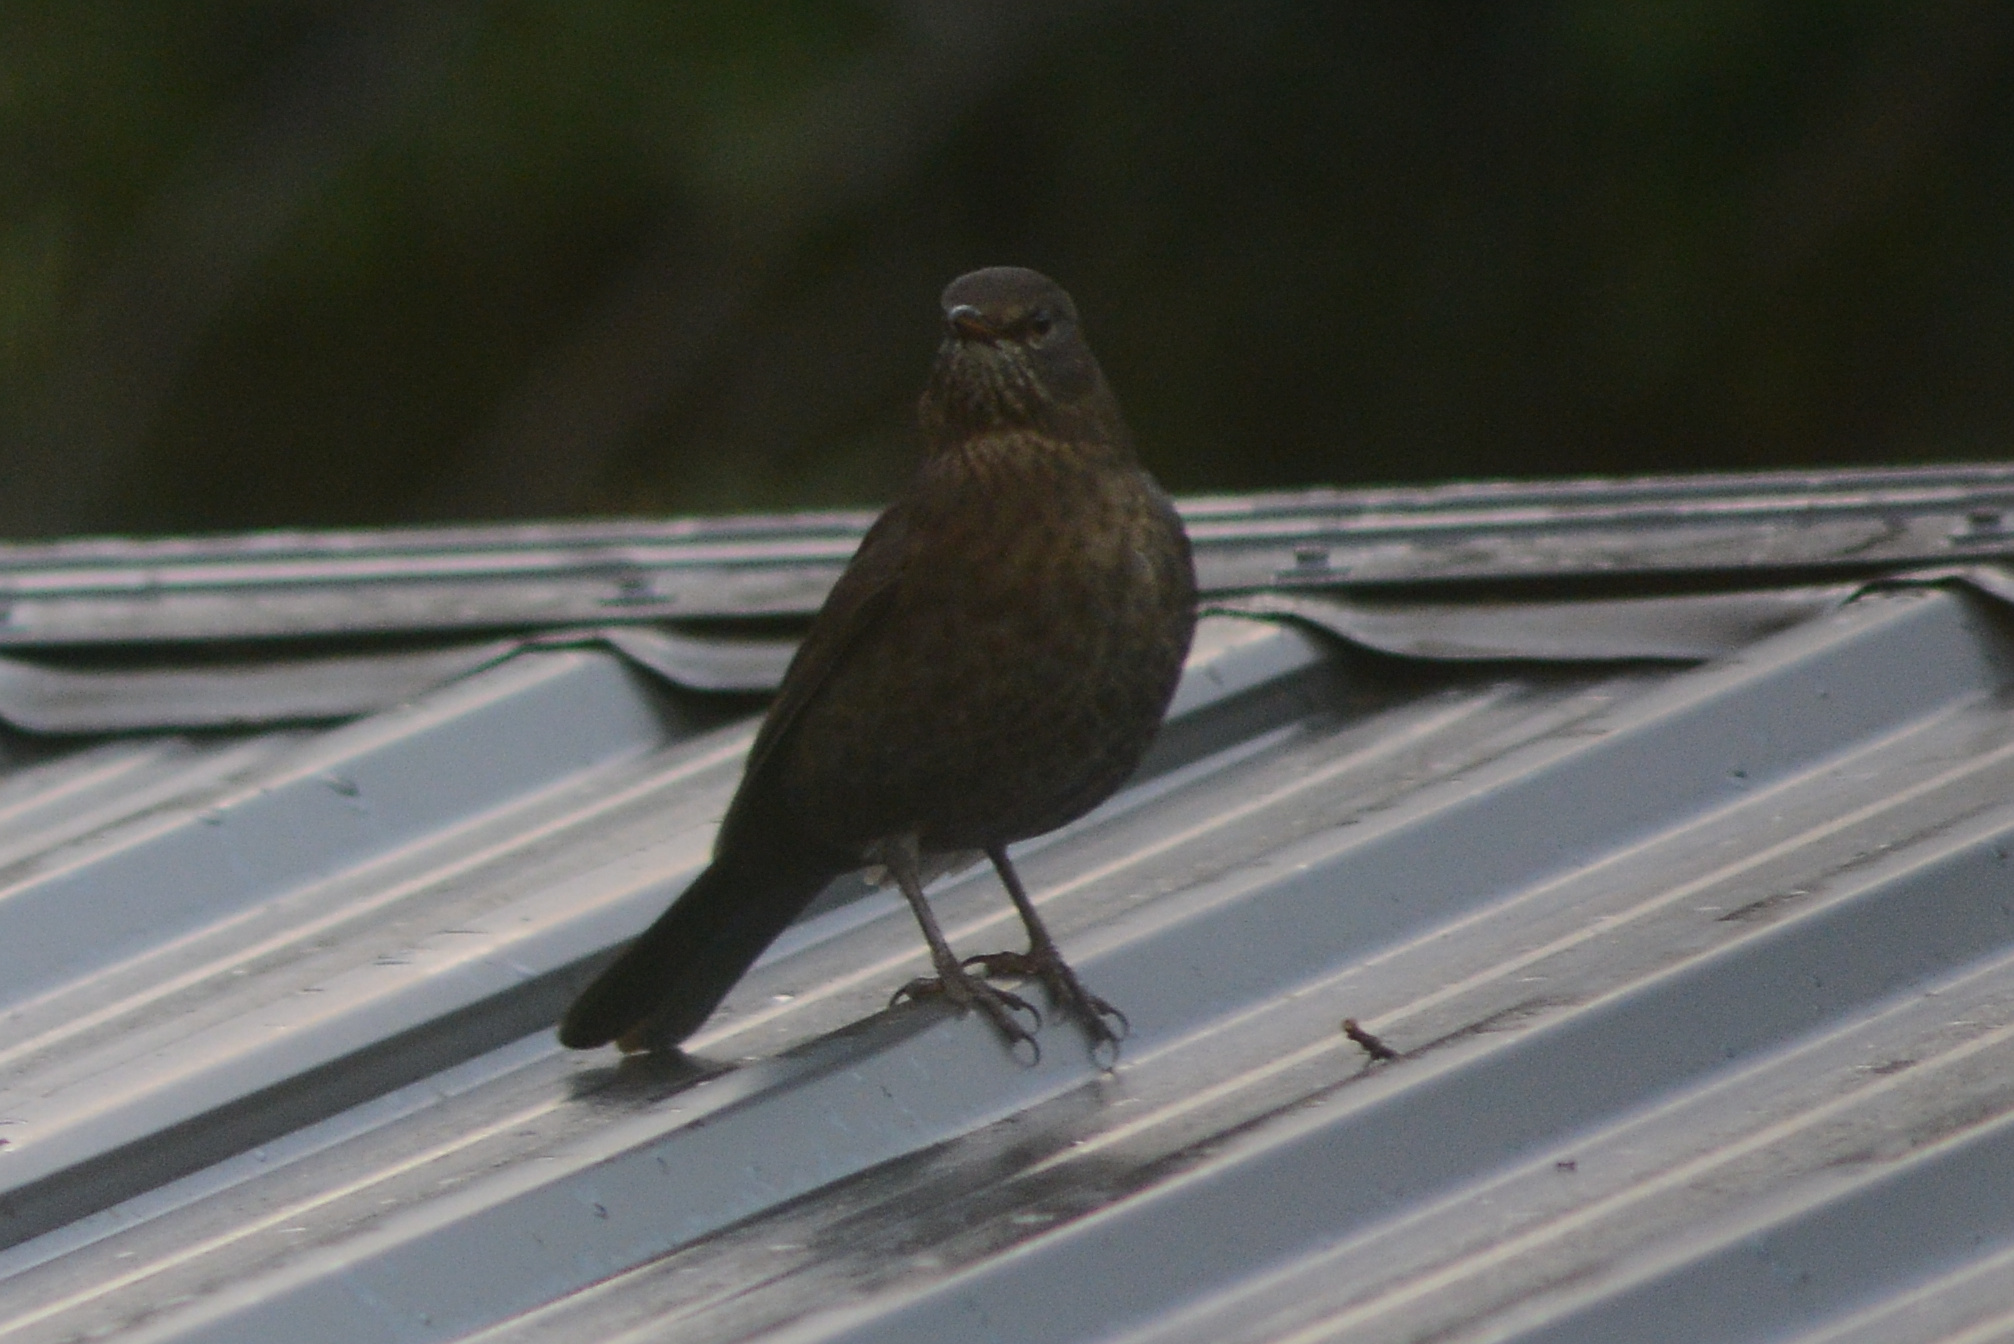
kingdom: Animalia
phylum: Chordata
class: Aves
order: Passeriformes
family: Turdidae
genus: Turdus
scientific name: Turdus merula
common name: Common blackbird
